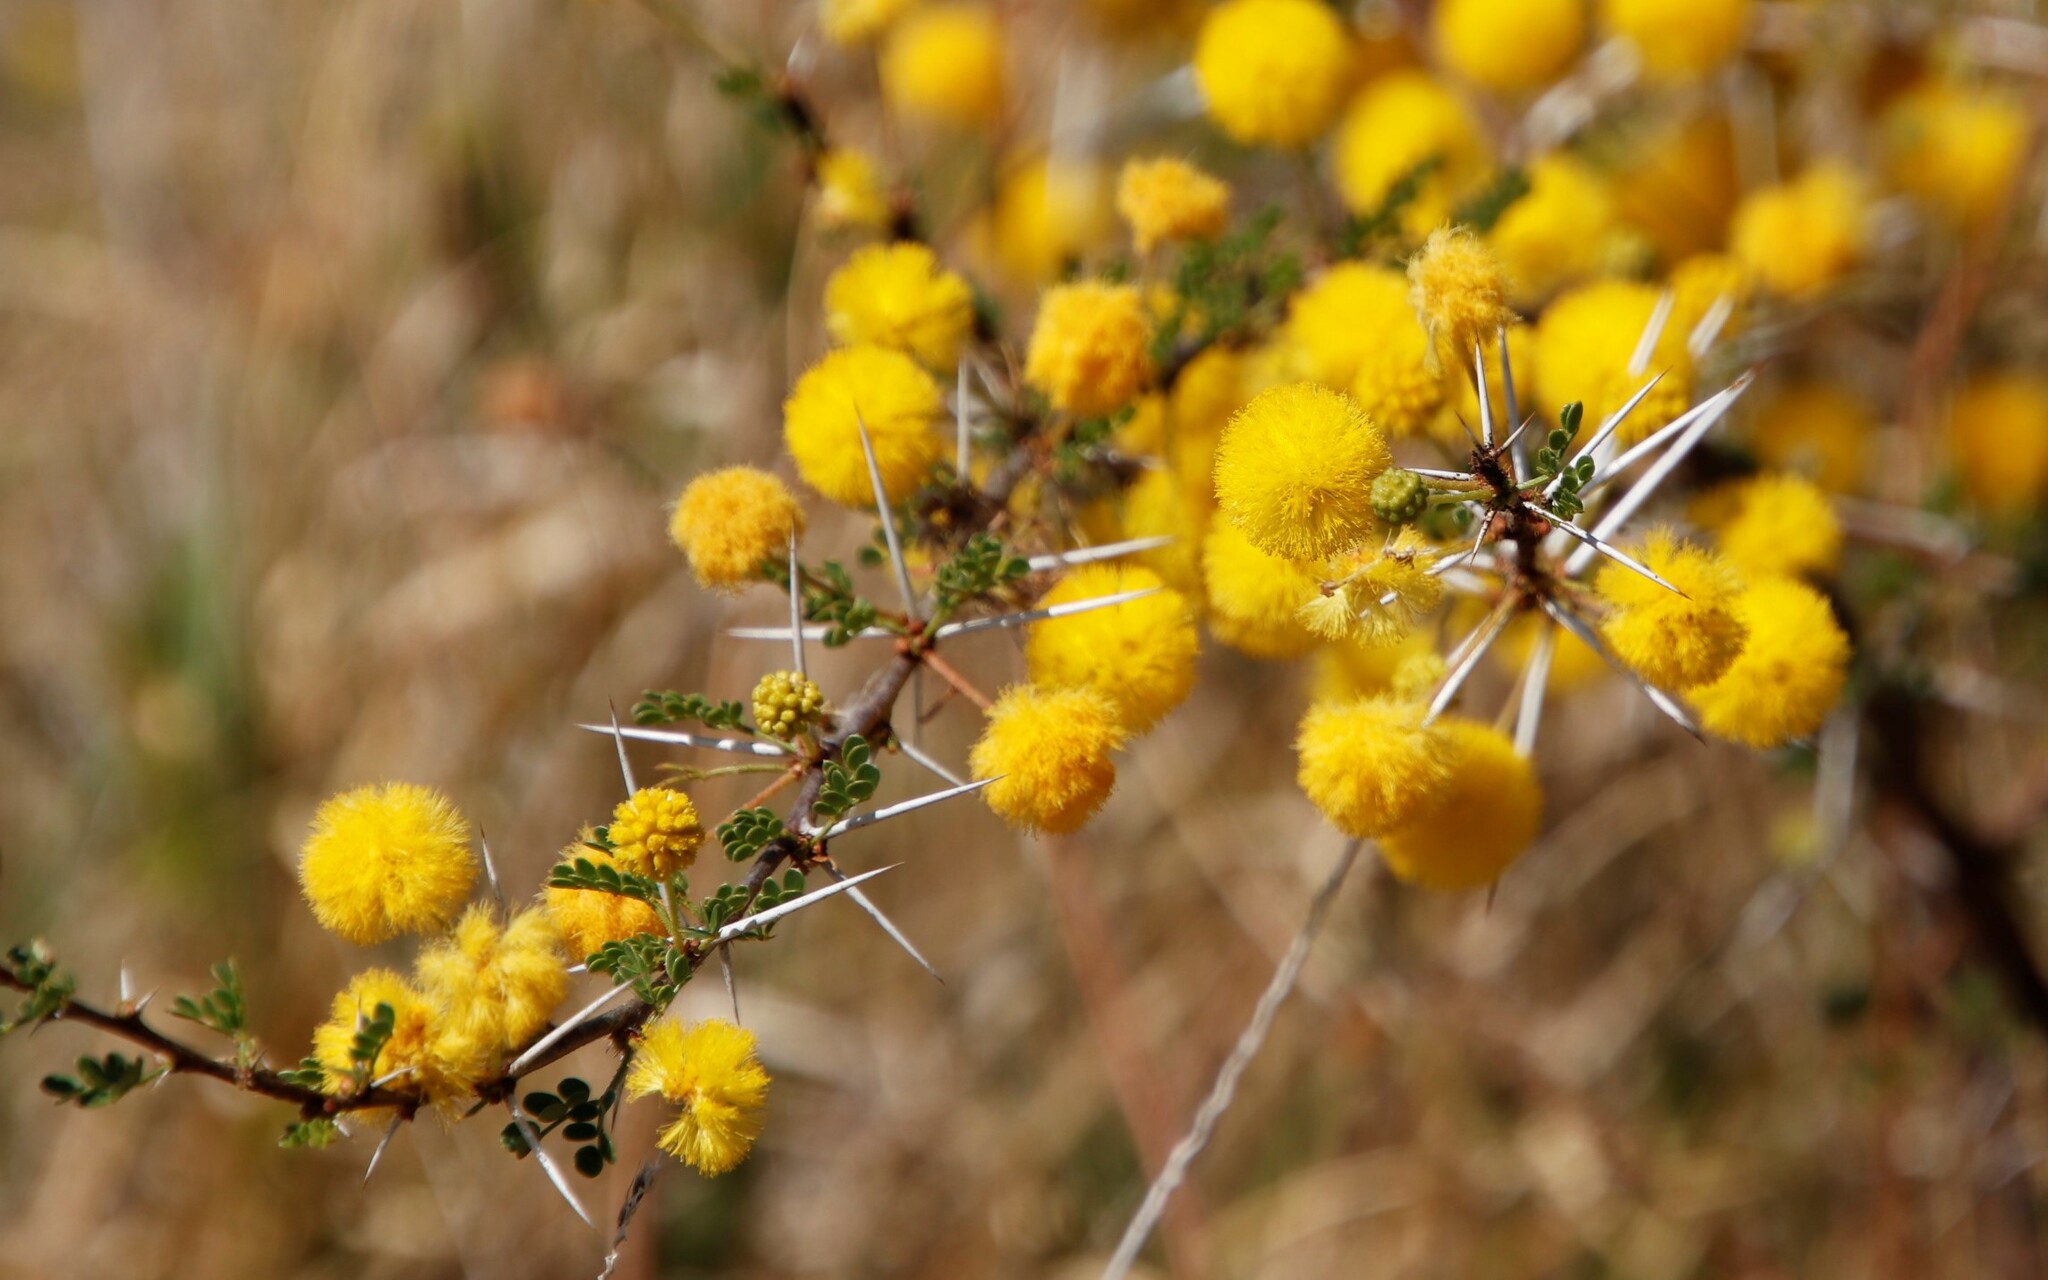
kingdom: Plantae
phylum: Tracheophyta
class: Magnoliopsida
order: Fabales
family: Fabaceae
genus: Vachellia
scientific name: Vachellia nebrownii
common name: Water acacia
